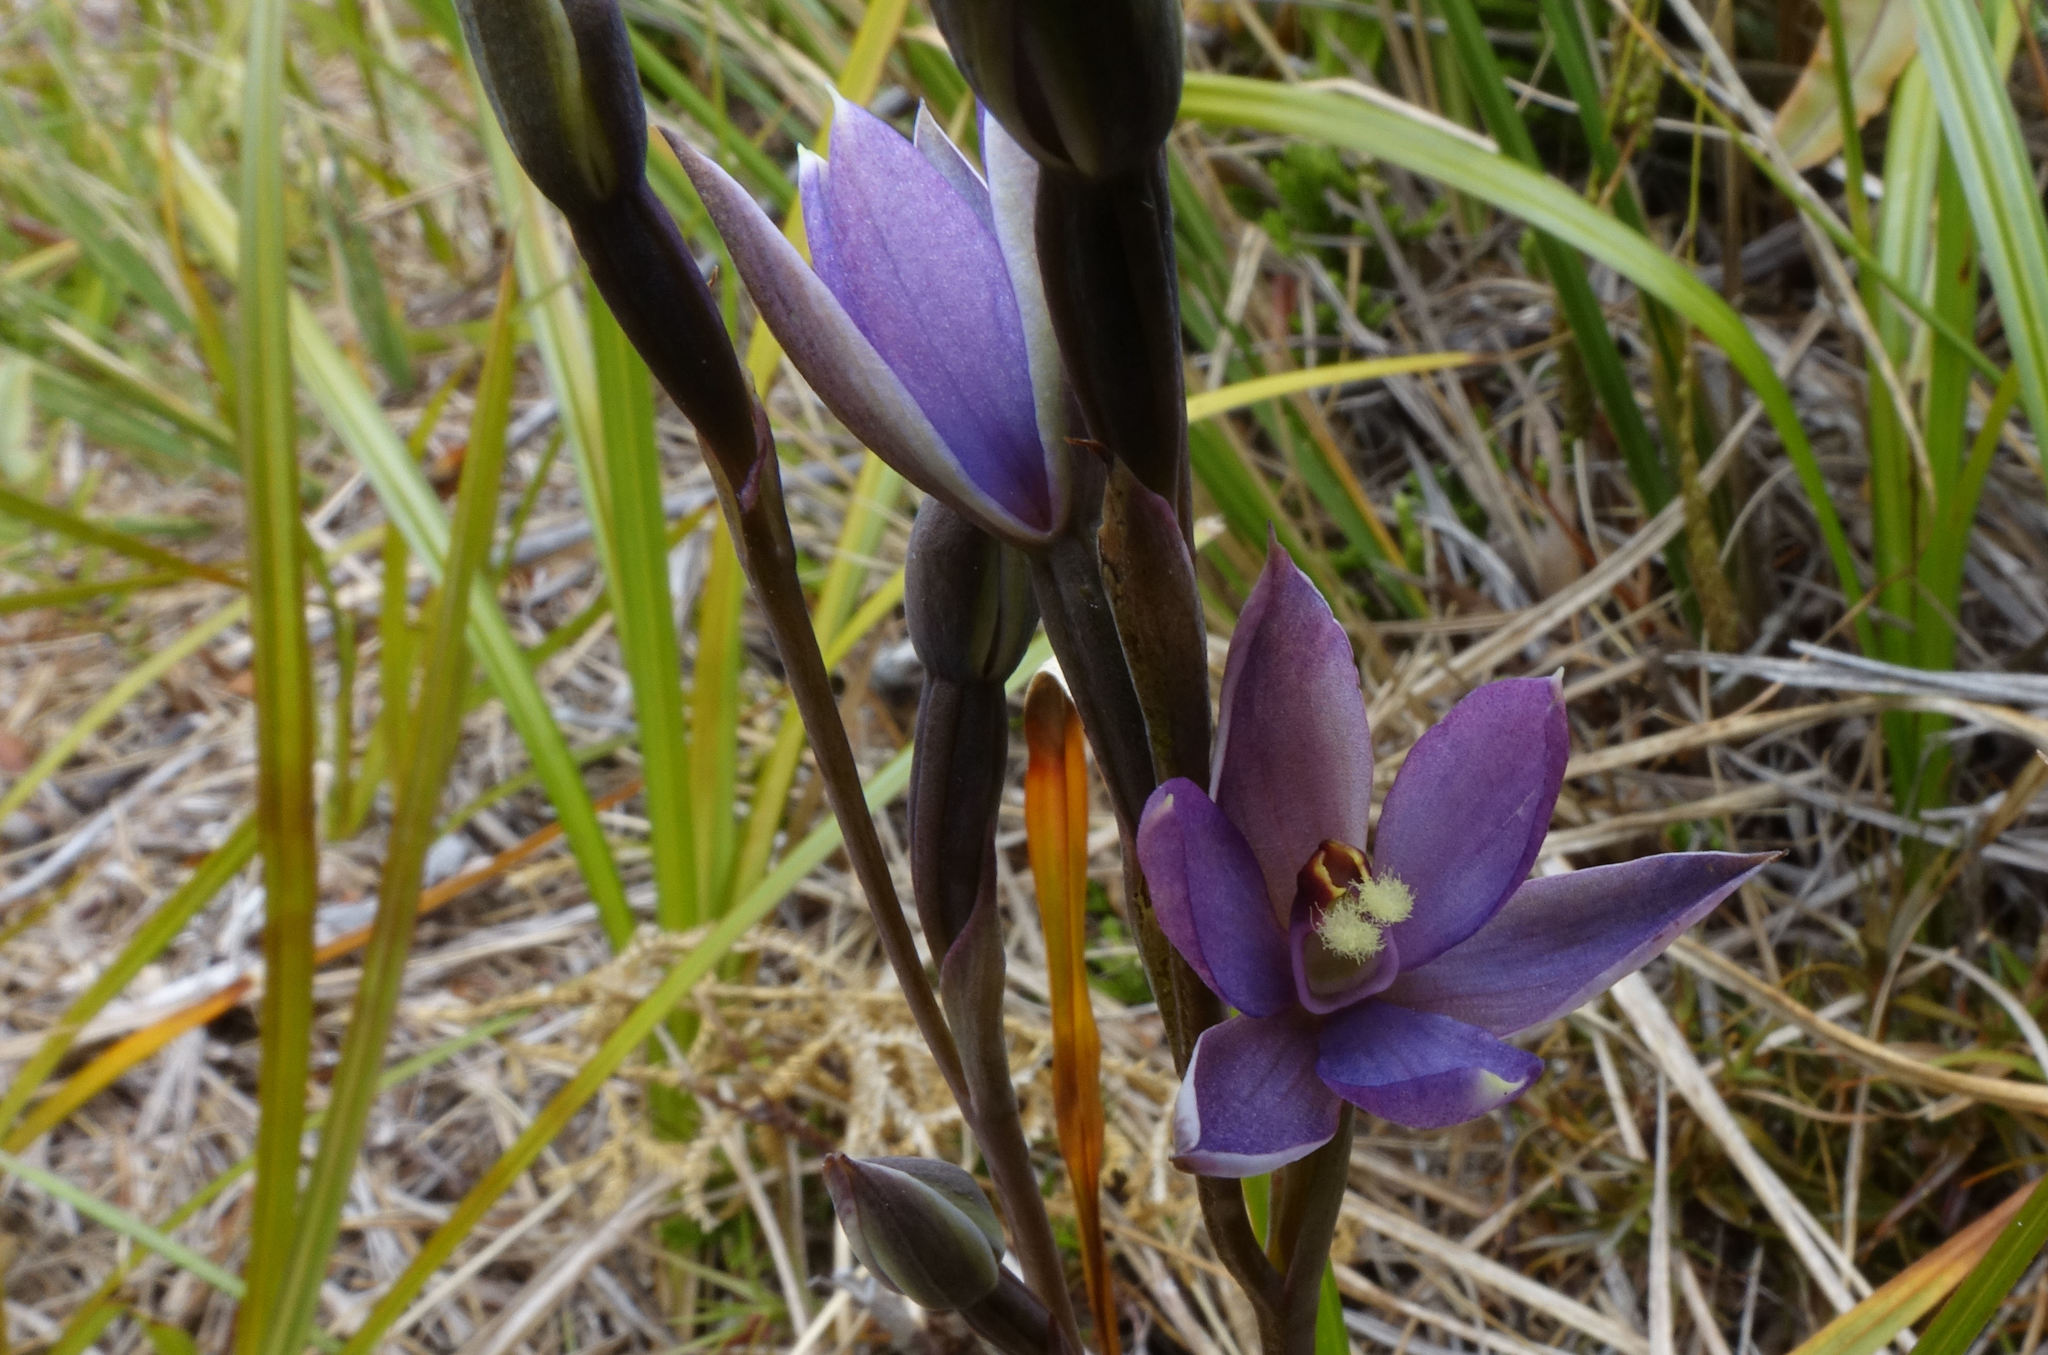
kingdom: Plantae
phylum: Tracheophyta
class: Liliopsida
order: Asparagales
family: Orchidaceae
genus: Thelymitra
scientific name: Thelymitra hatchii
